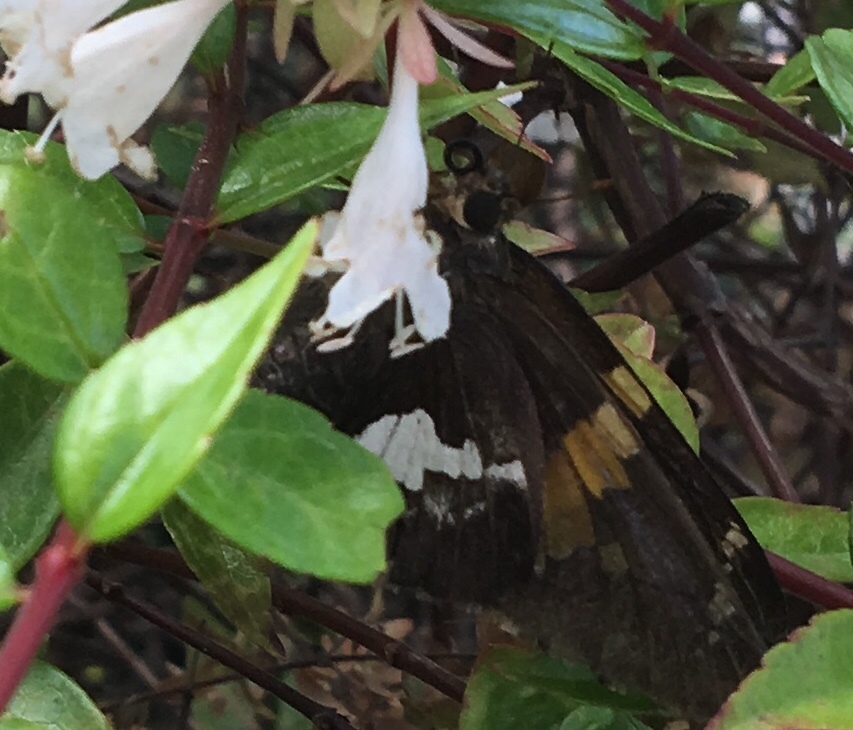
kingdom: Animalia
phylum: Arthropoda
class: Insecta
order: Lepidoptera
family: Hesperiidae
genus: Epargyreus
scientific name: Epargyreus clarus
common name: Silver-spotted skipper
